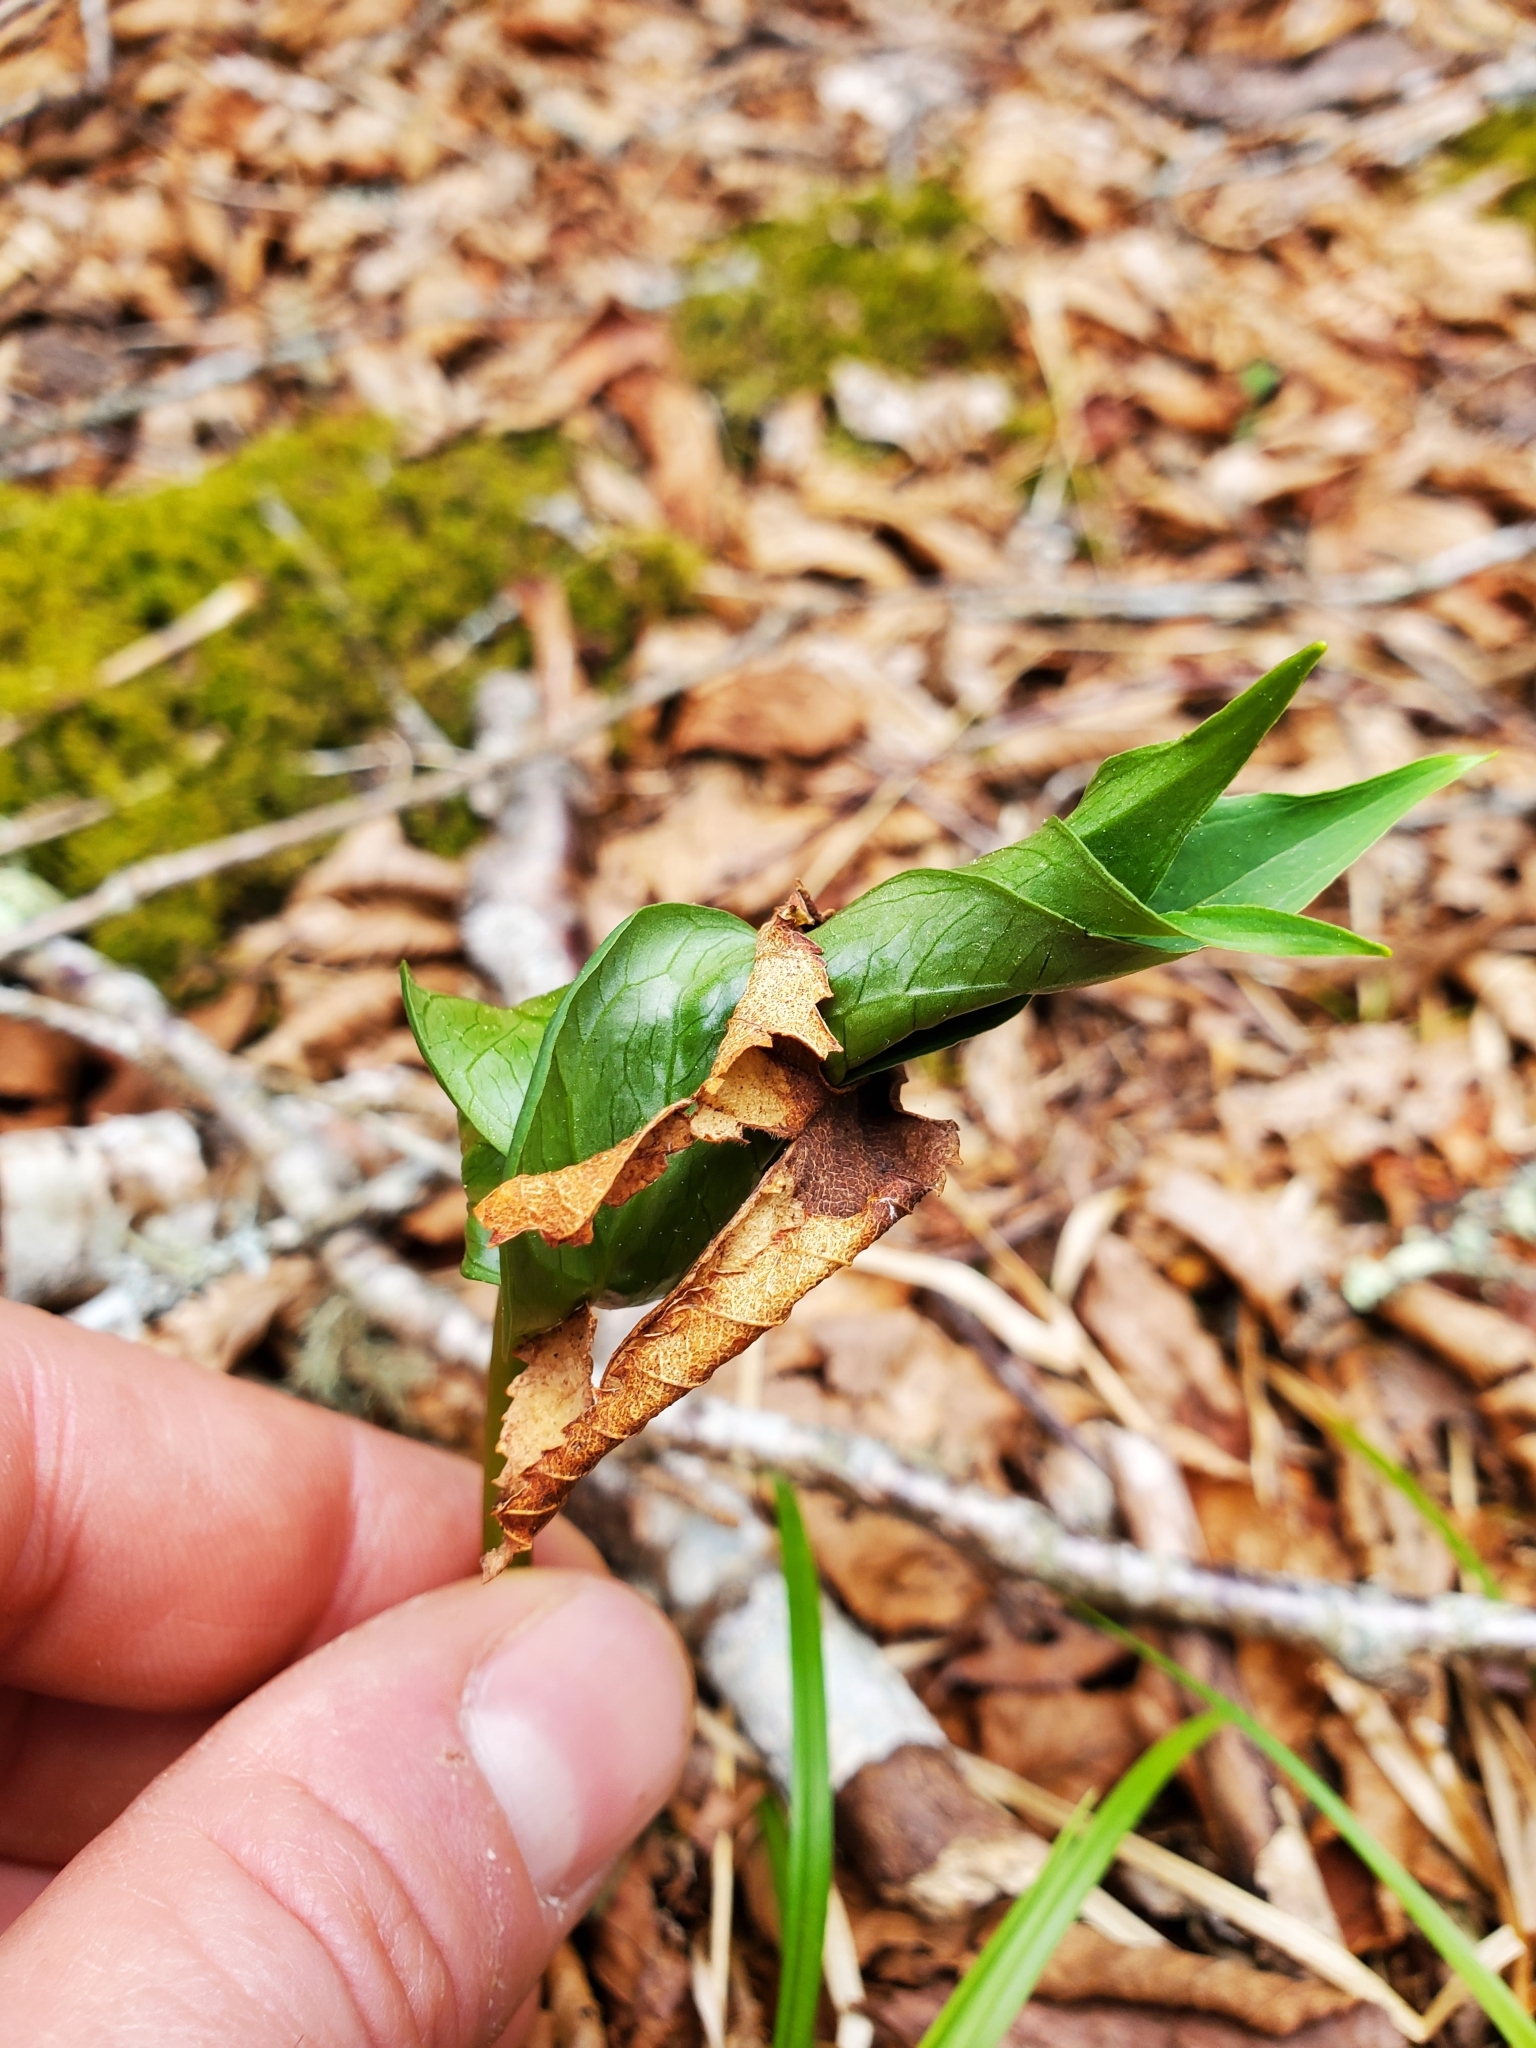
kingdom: Plantae
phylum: Tracheophyta
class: Liliopsida
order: Liliales
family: Melanthiaceae
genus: Trillium
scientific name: Trillium erectum
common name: Purple trillium
